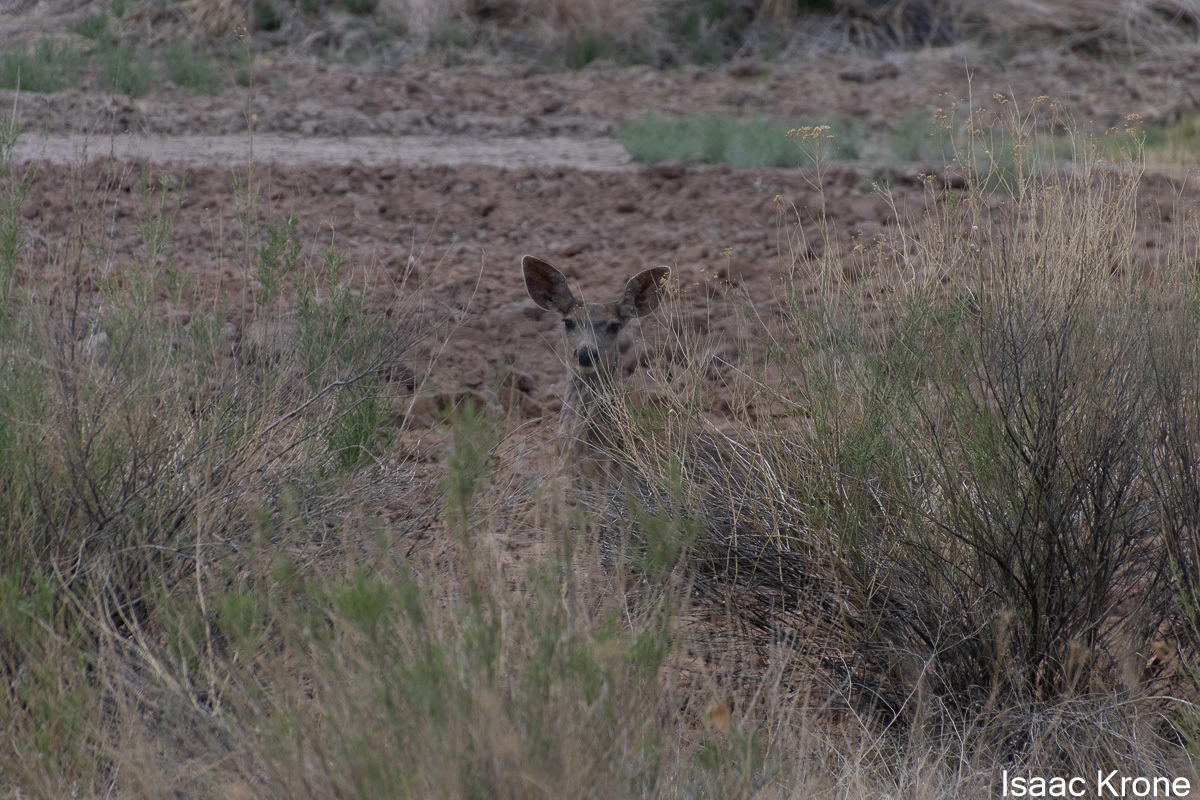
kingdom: Animalia
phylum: Chordata
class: Mammalia
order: Artiodactyla
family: Cervidae
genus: Odocoileus
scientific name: Odocoileus hemionus
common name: Mule deer
